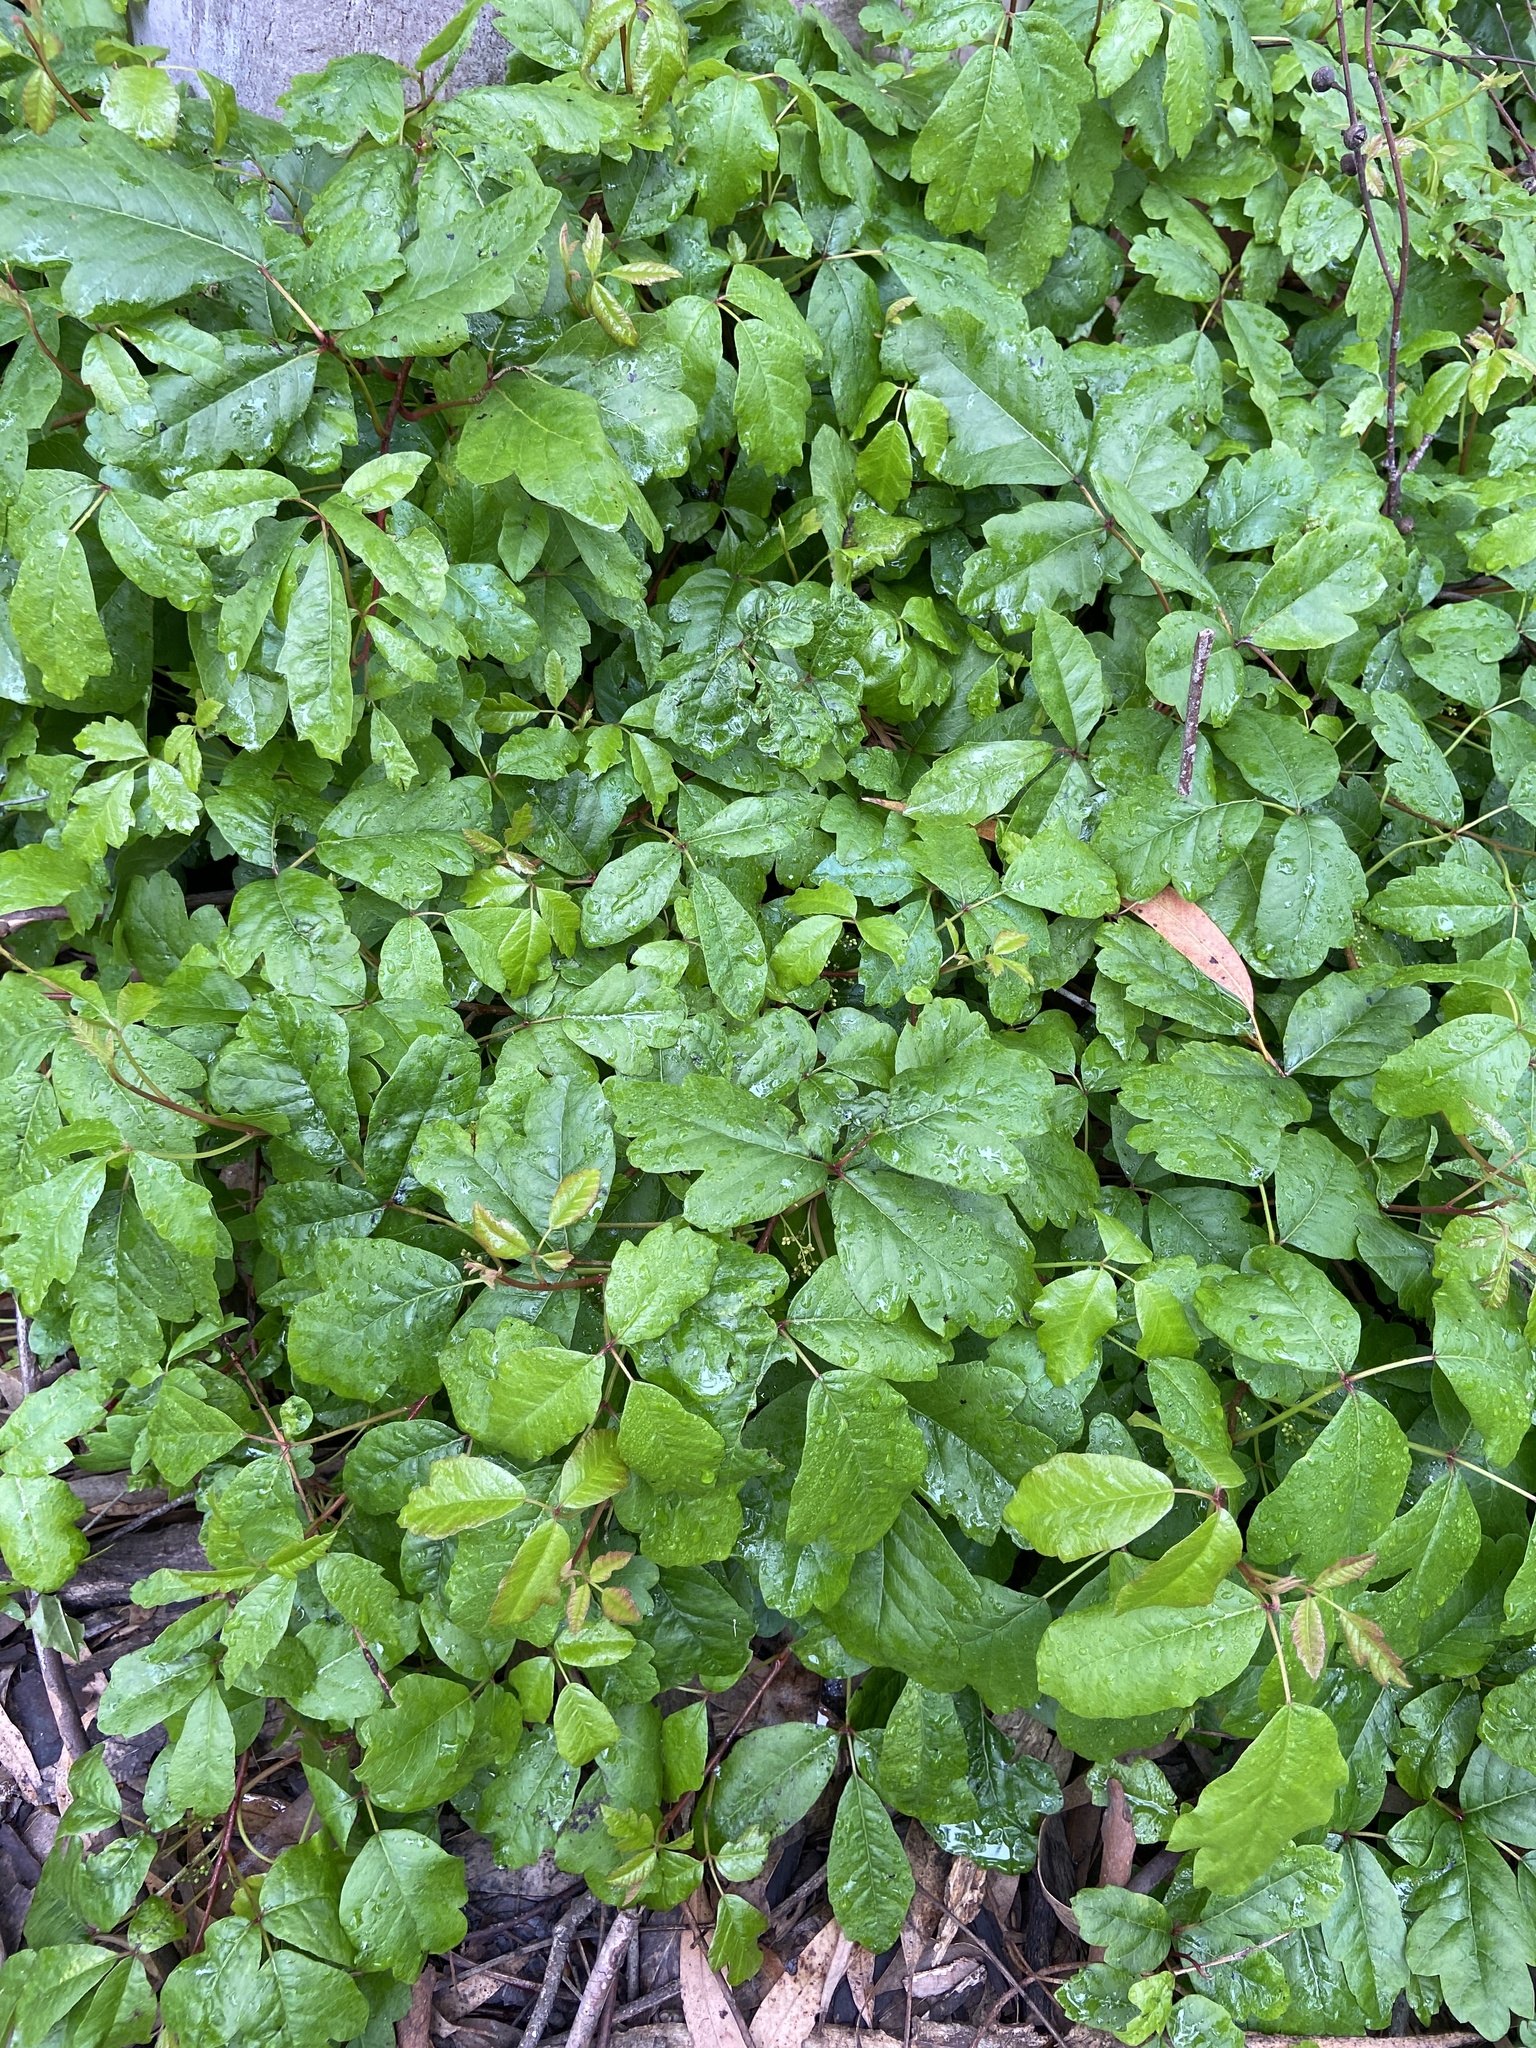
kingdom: Plantae
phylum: Tracheophyta
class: Magnoliopsida
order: Sapindales
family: Anacardiaceae
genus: Toxicodendron
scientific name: Toxicodendron diversilobum
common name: Pacific poison-oak
